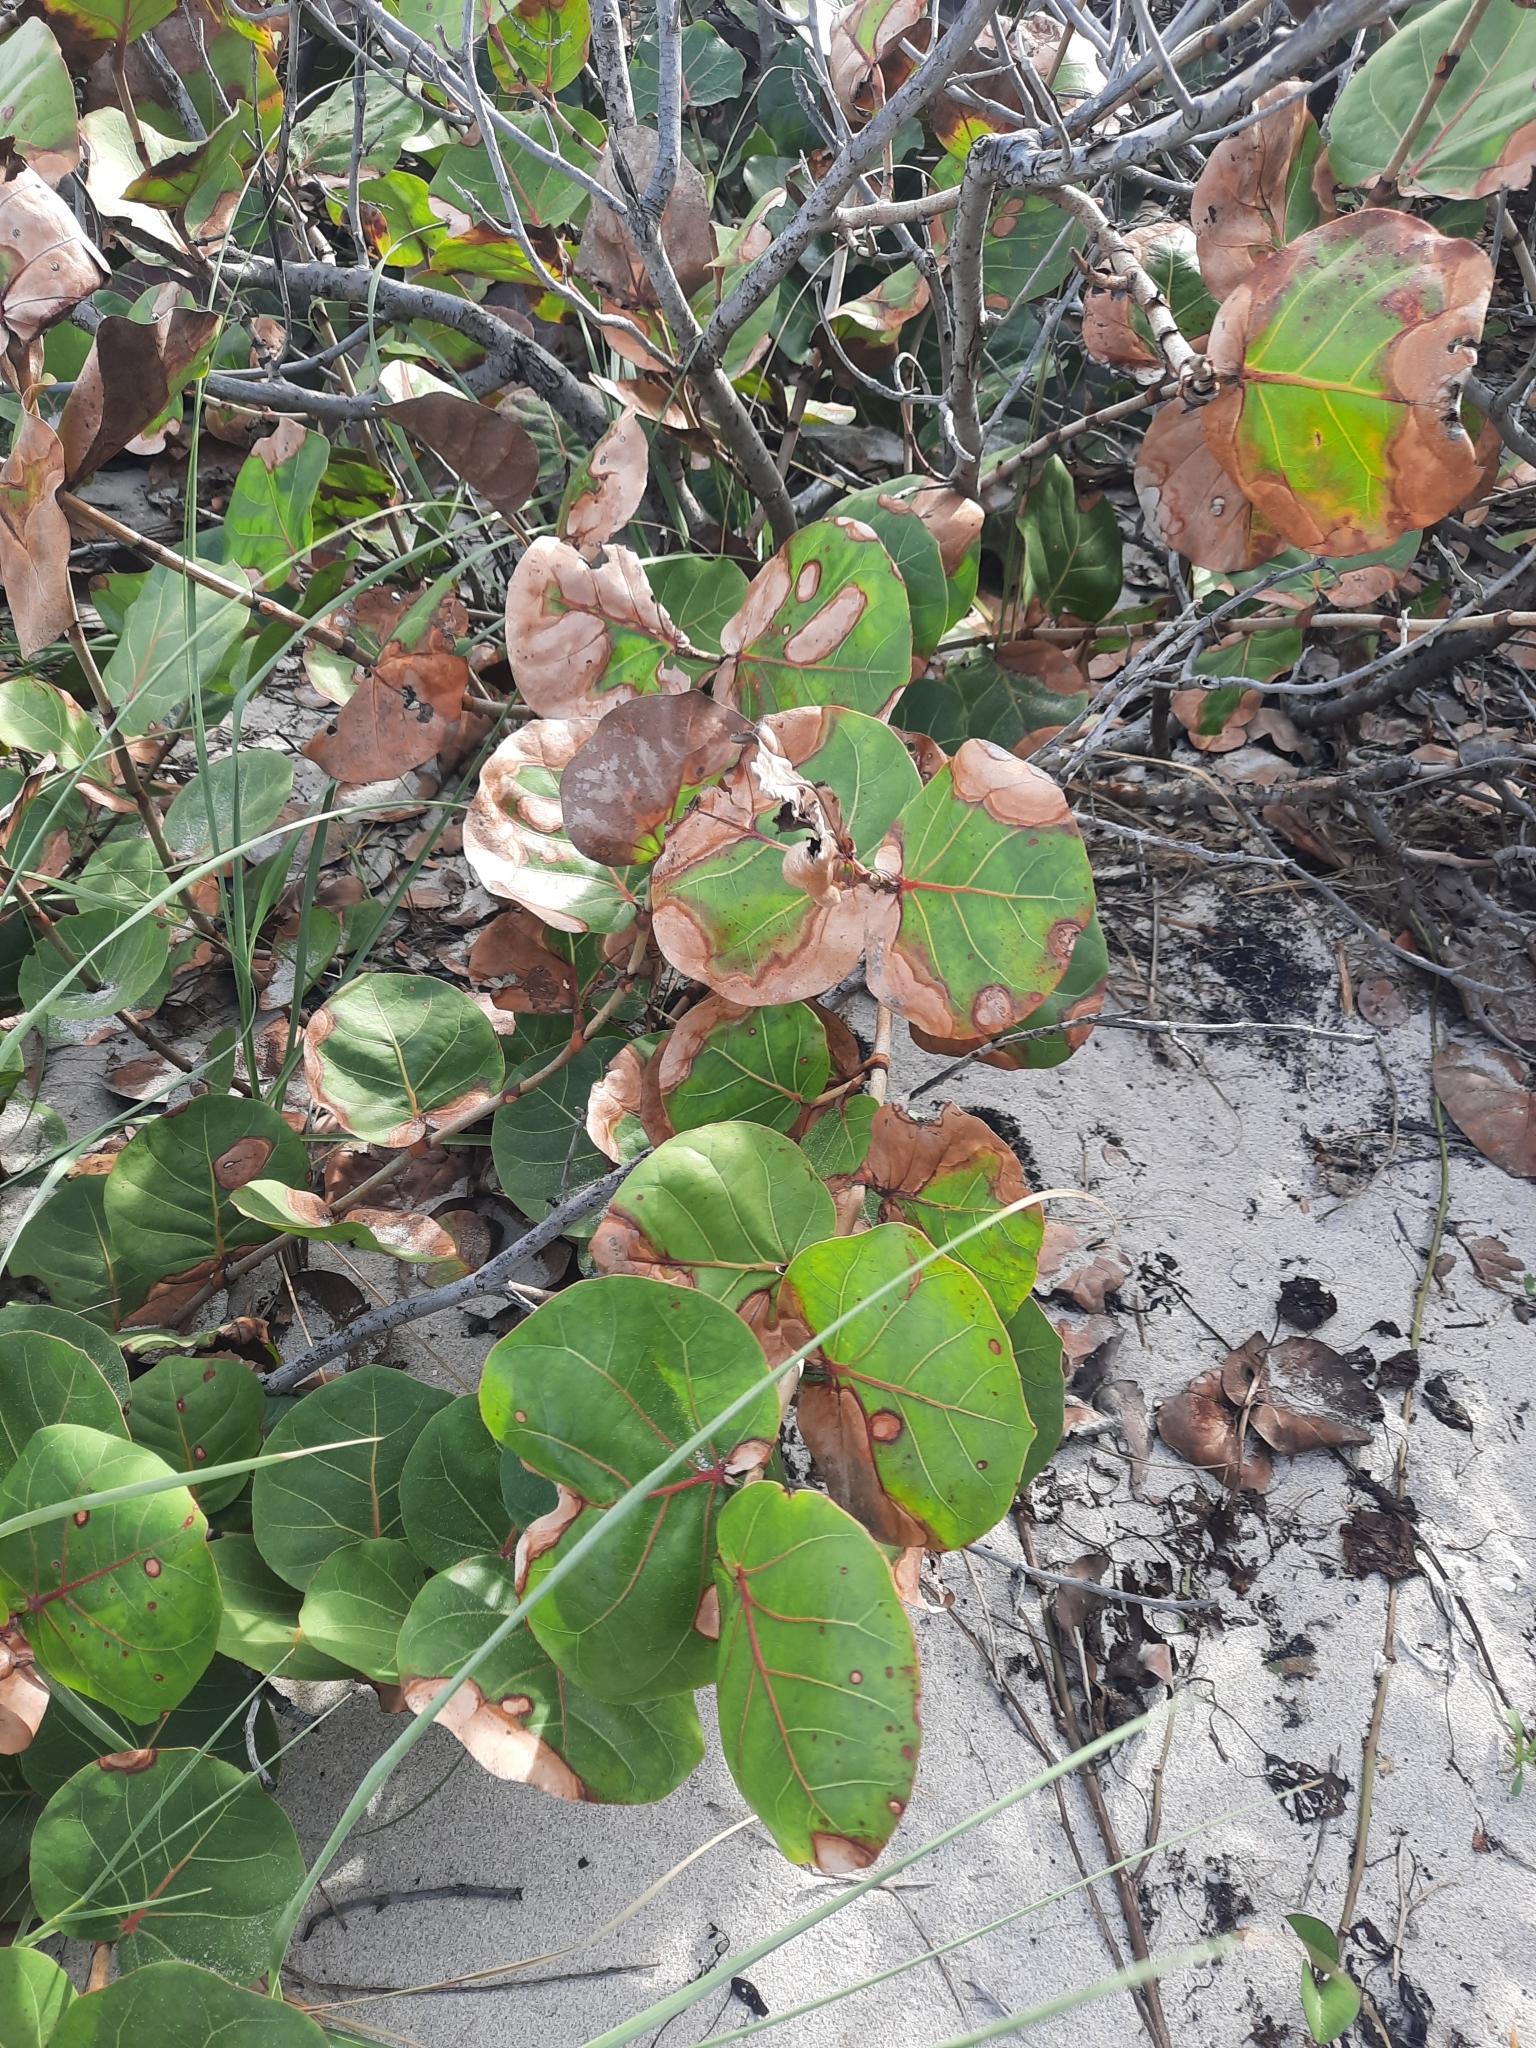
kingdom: Plantae
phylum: Tracheophyta
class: Magnoliopsida
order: Caryophyllales
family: Polygonaceae
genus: Coccoloba
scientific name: Coccoloba uvifera
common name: Seagrape
